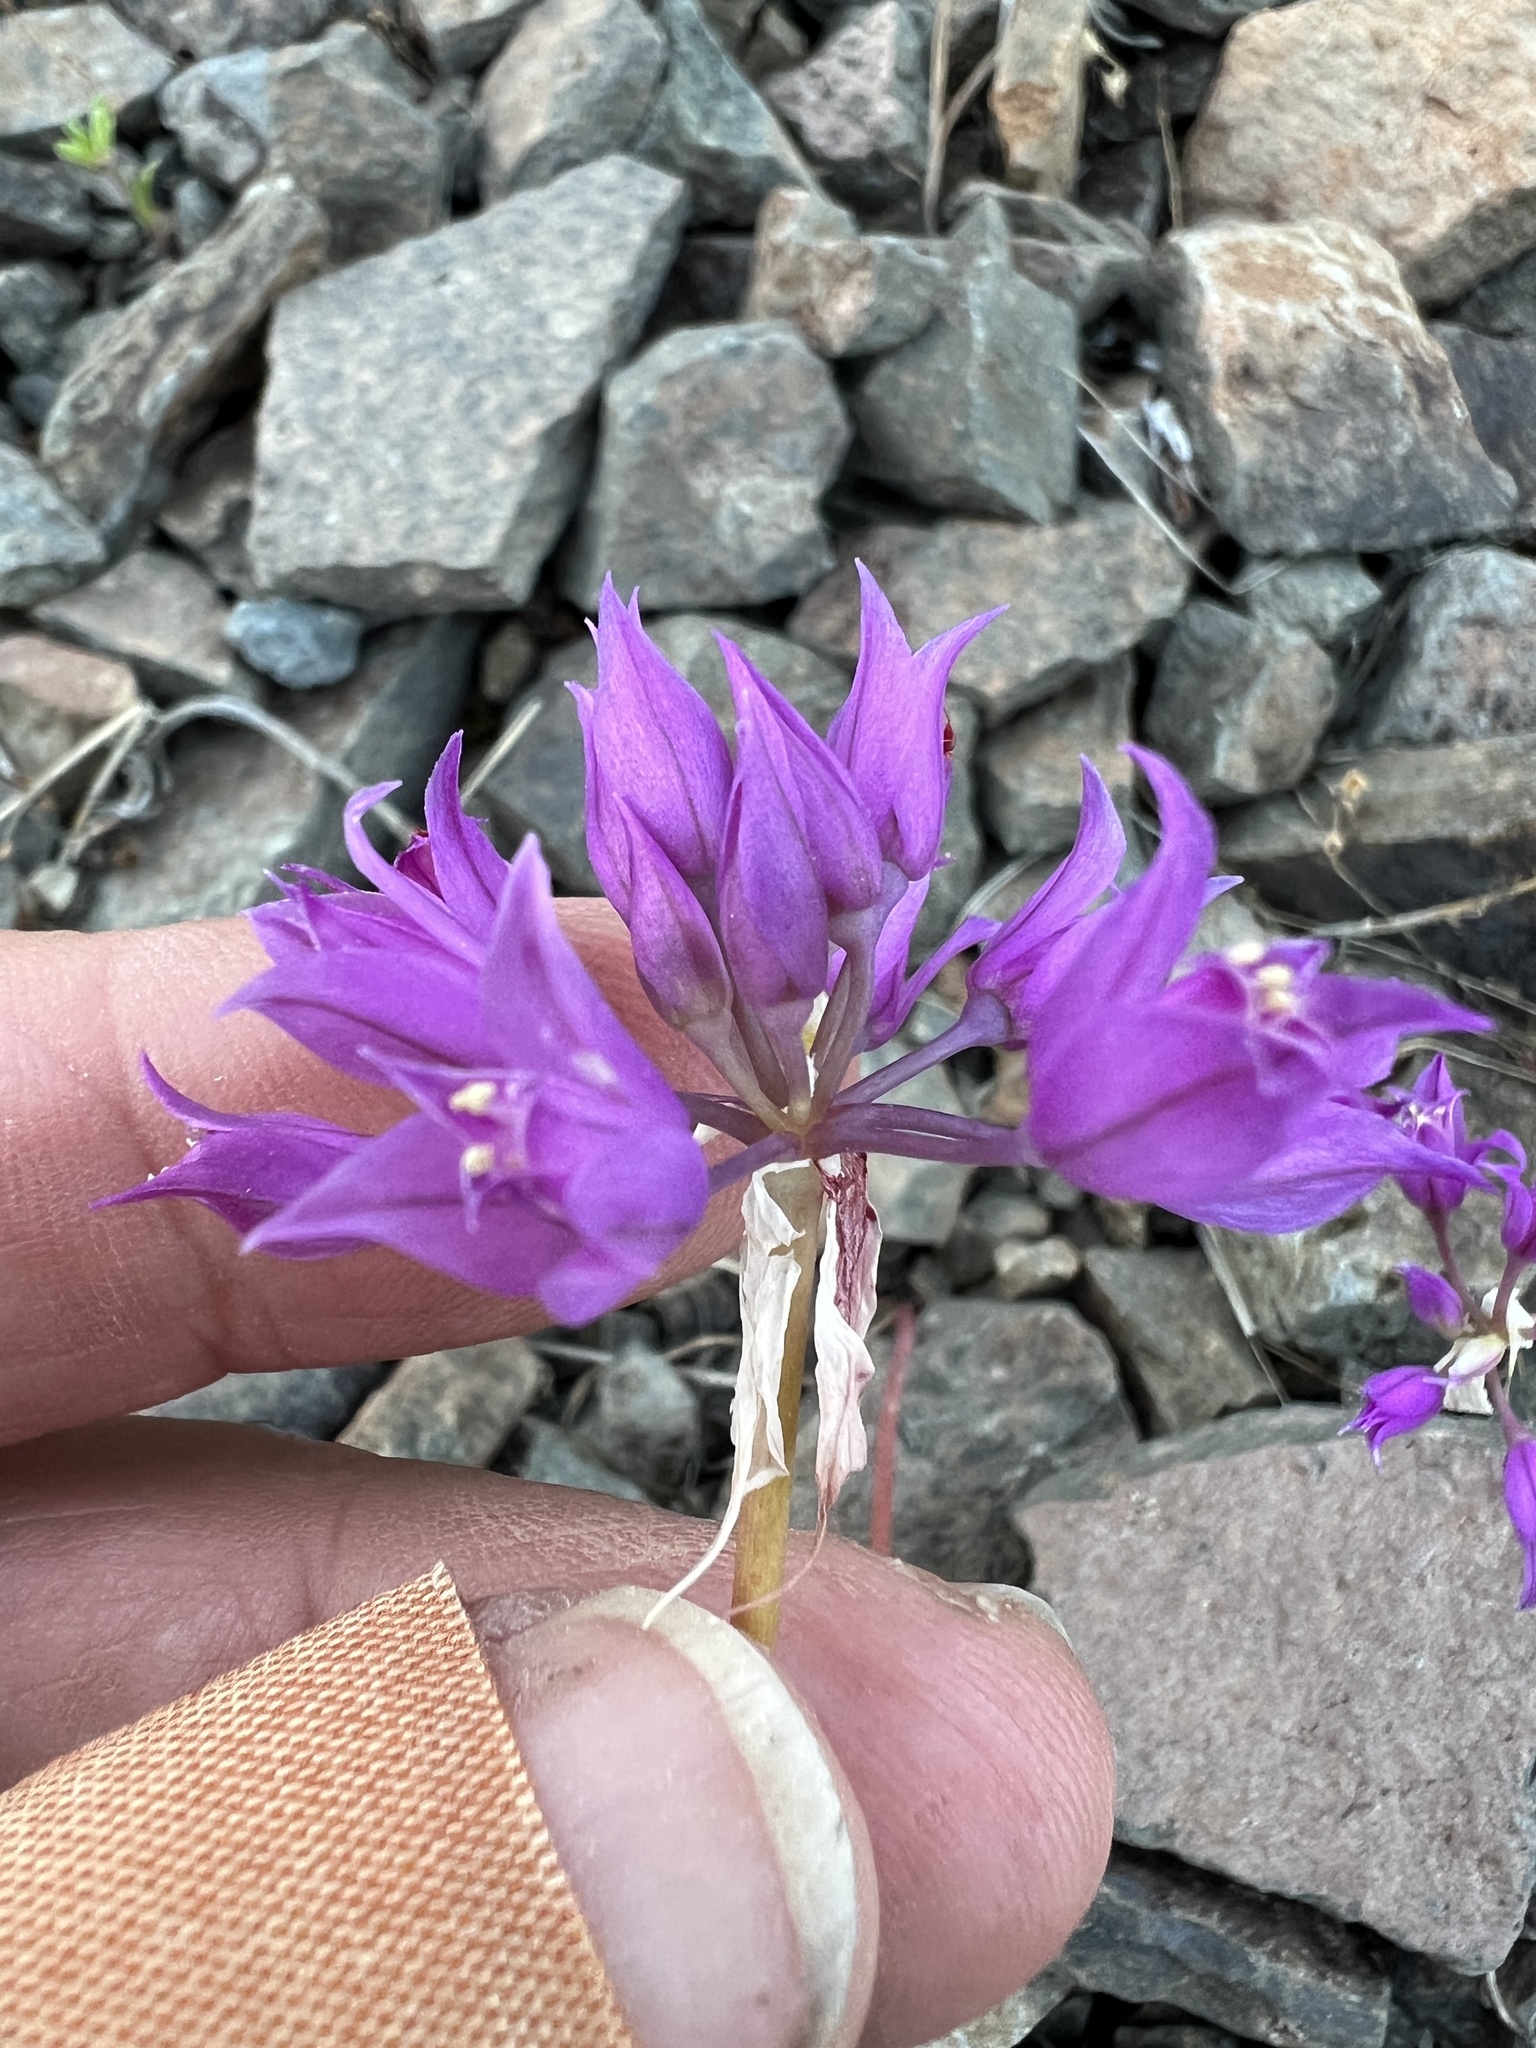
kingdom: Plantae
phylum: Tracheophyta
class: Liliopsida
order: Asparagales
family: Amaryllidaceae
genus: Allium
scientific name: Allium acuminatum
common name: Hooker's onion
